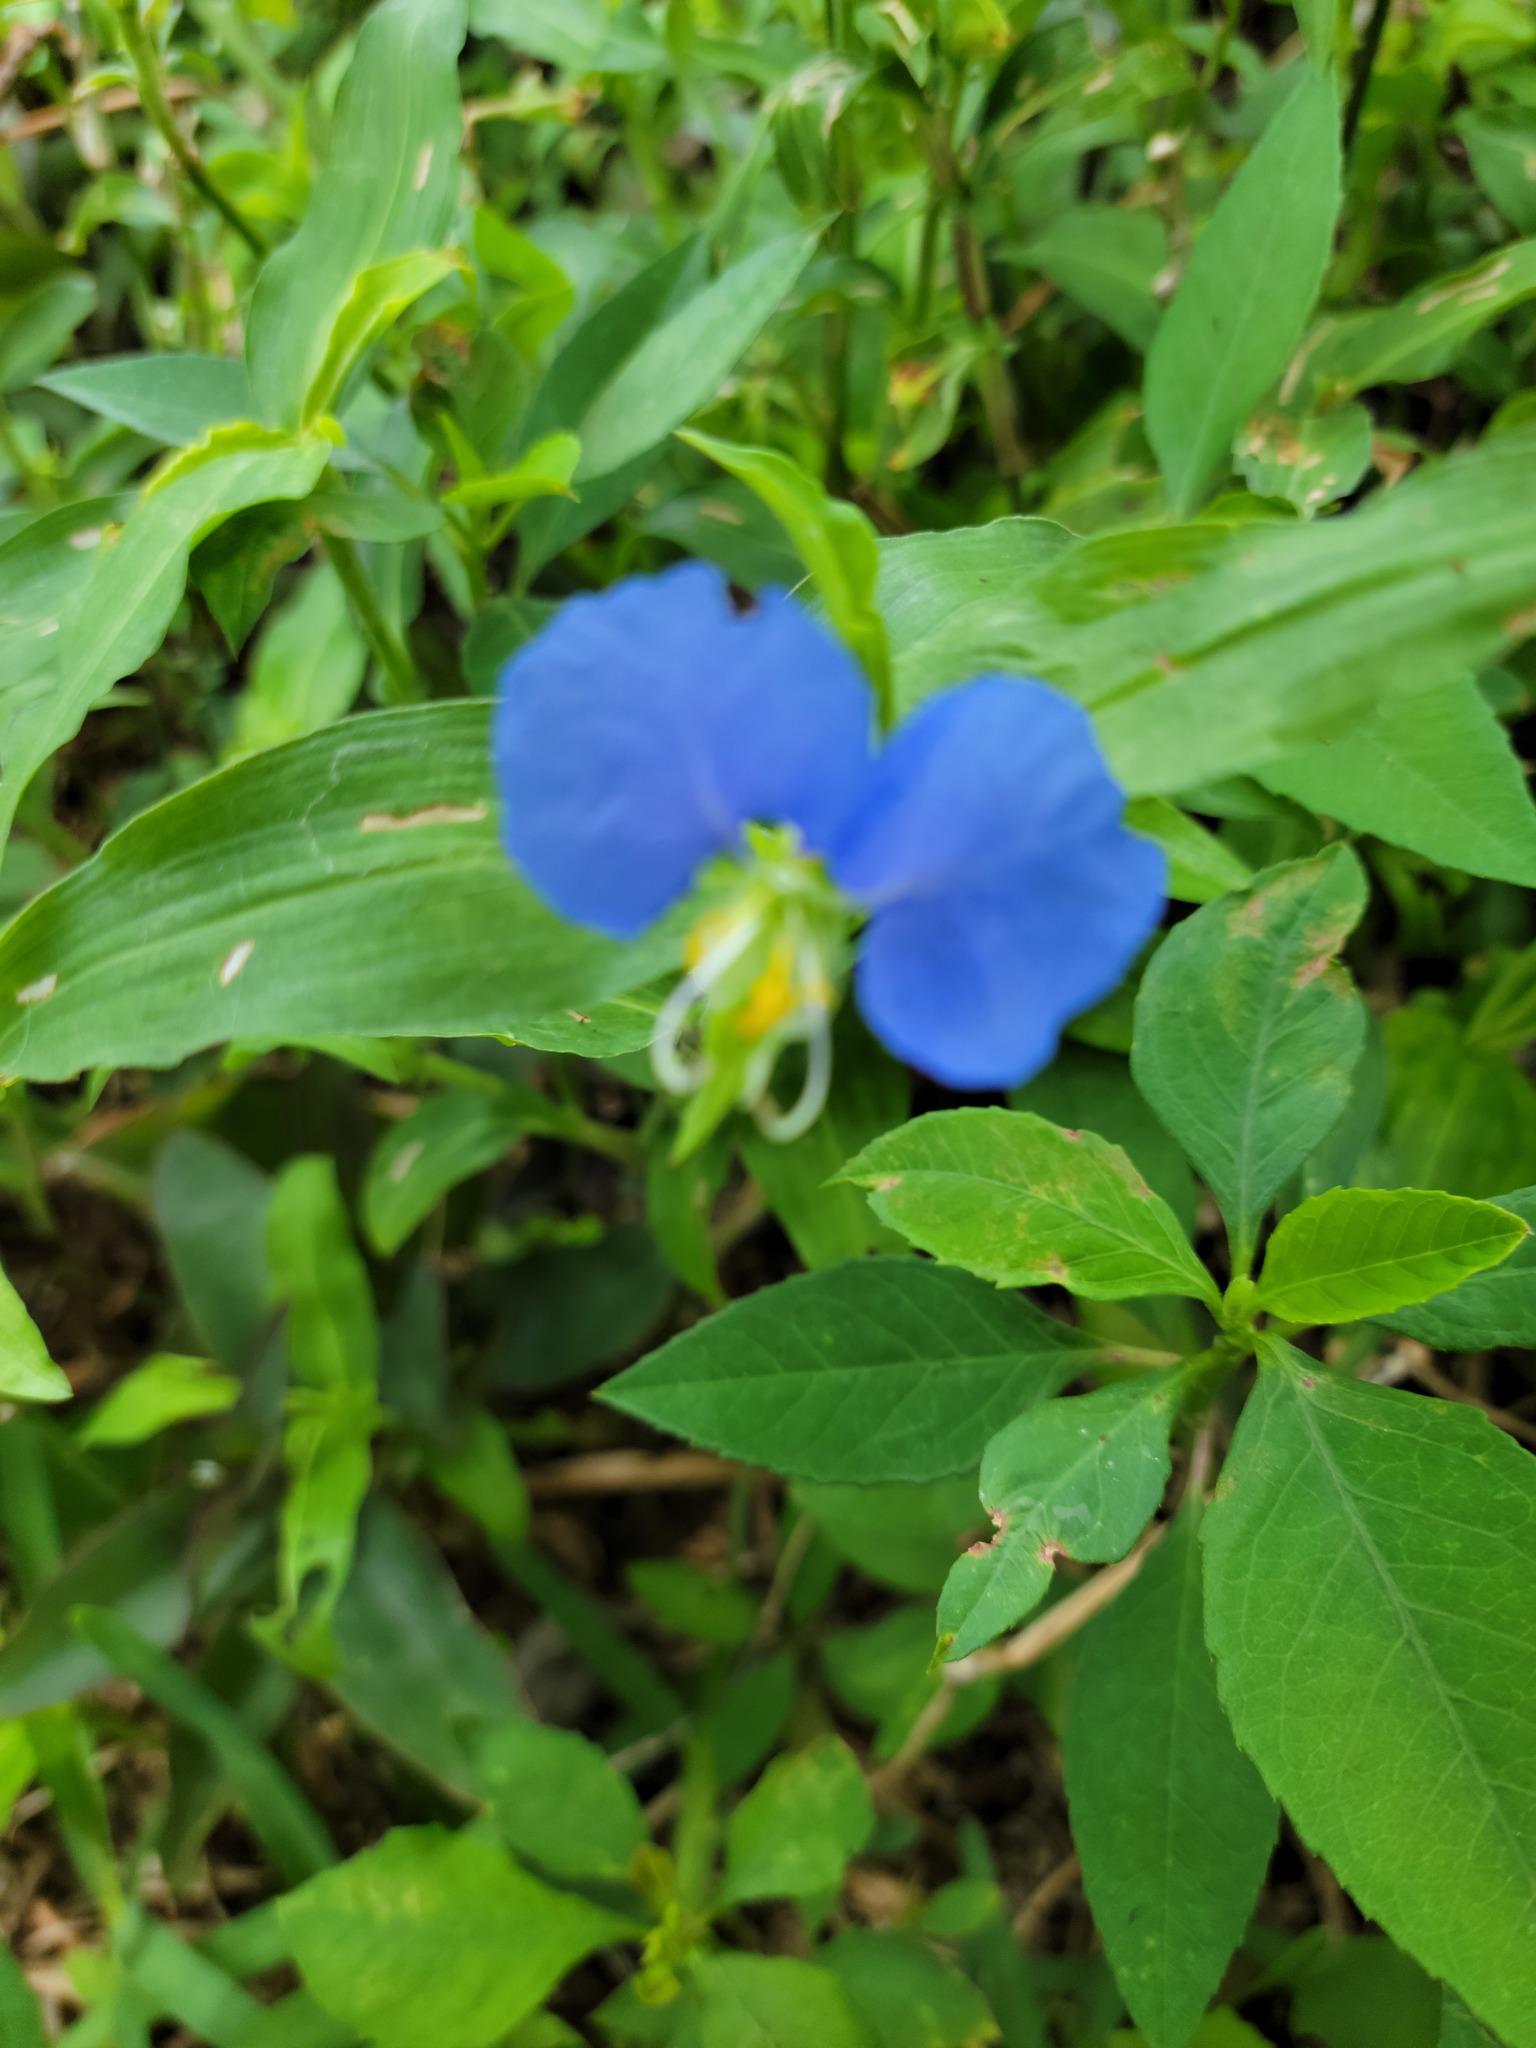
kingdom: Plantae
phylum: Tracheophyta
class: Liliopsida
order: Commelinales
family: Commelinaceae
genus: Commelina
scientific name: Commelina erecta
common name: Blousel blommetjie
